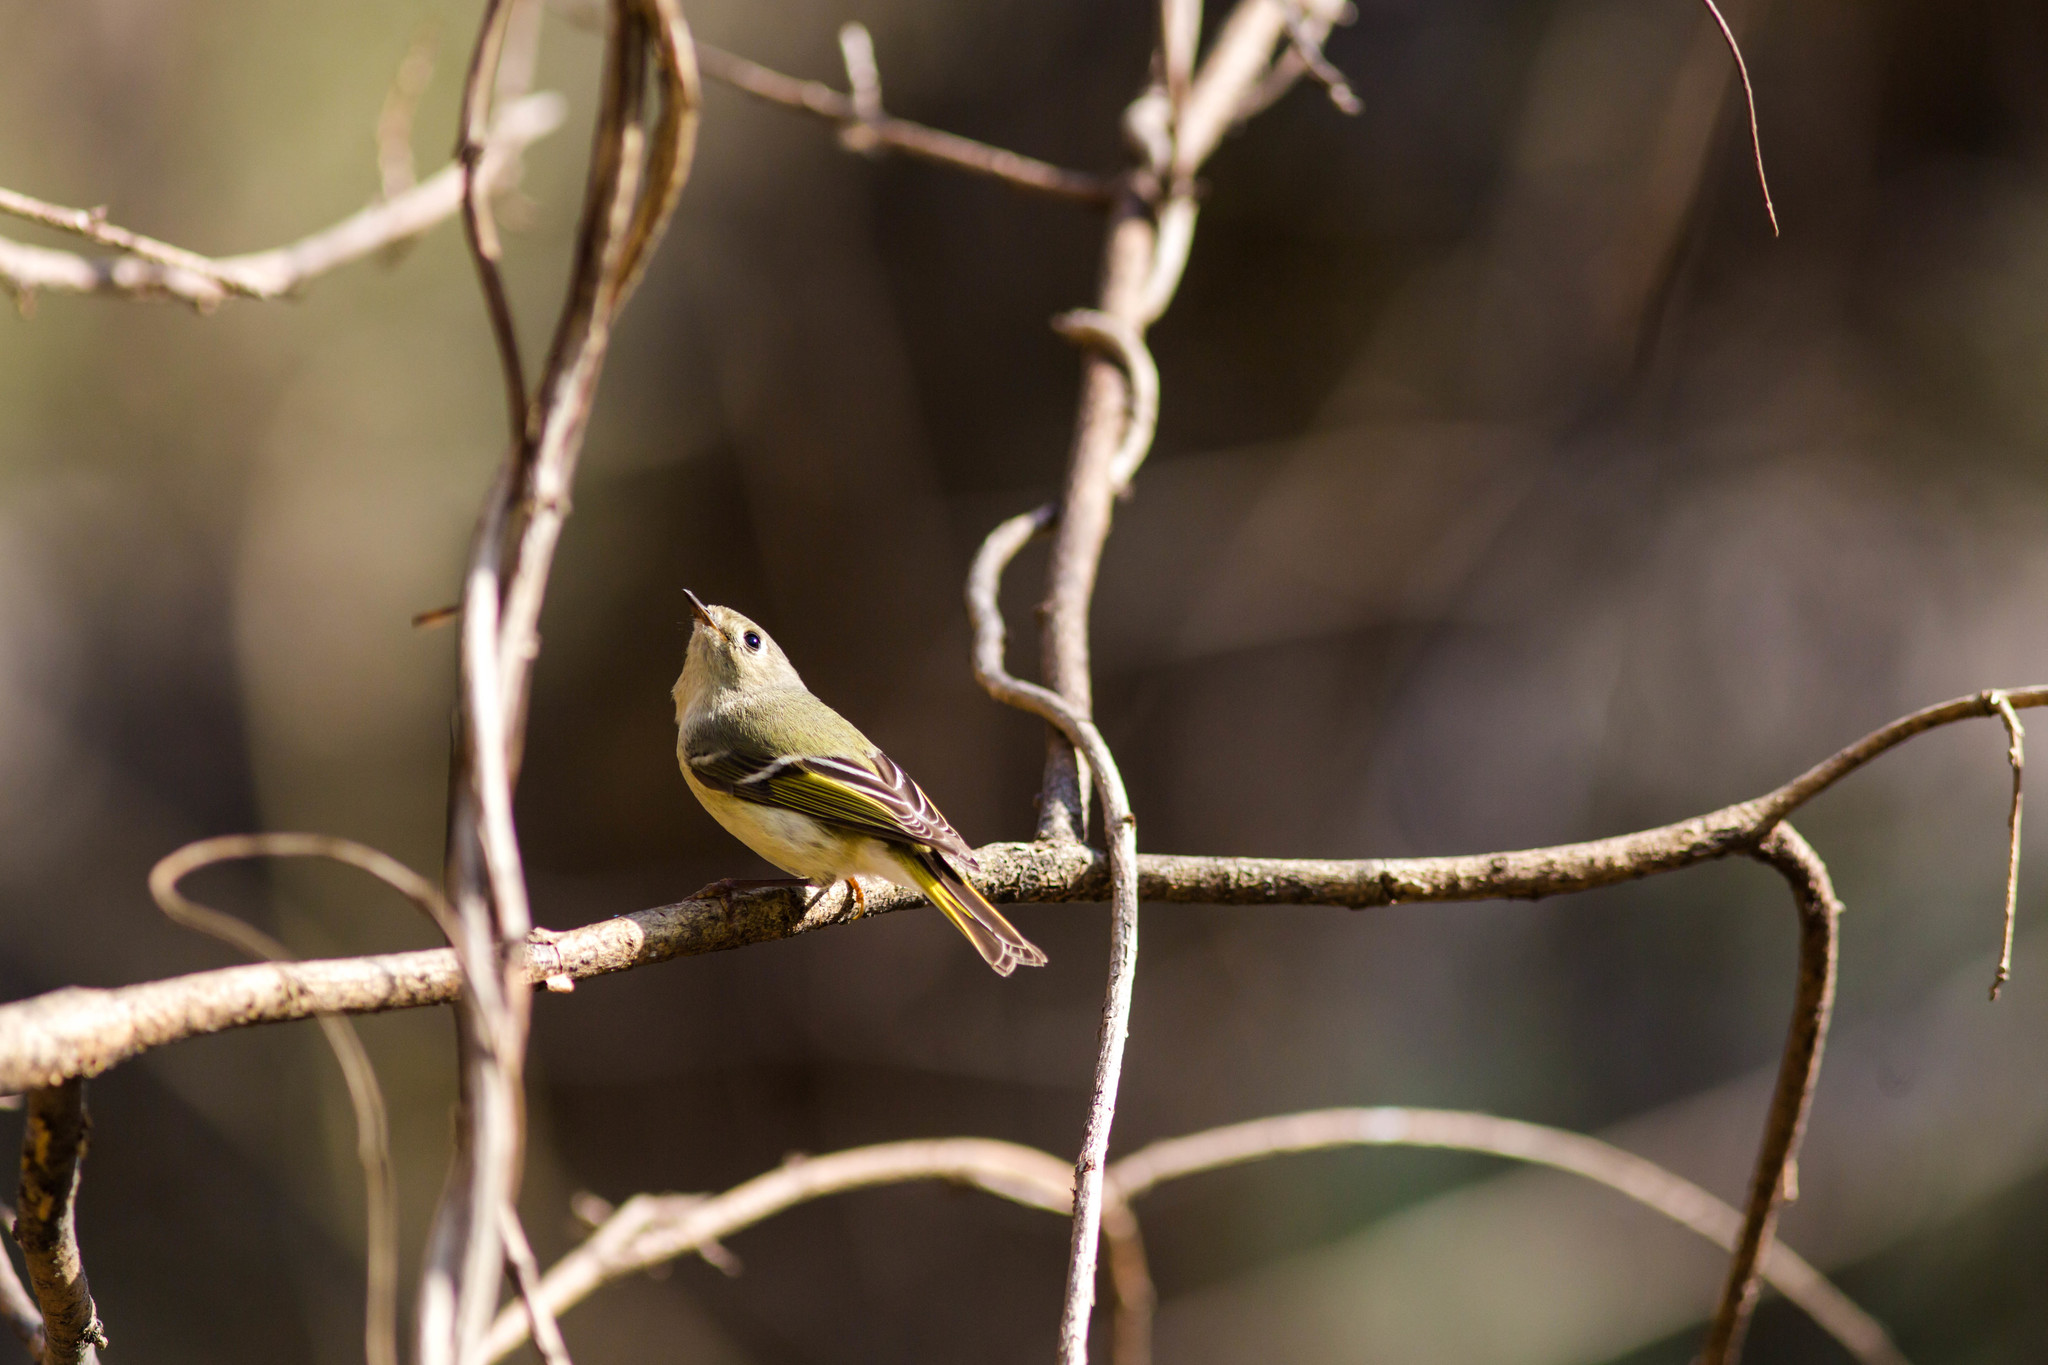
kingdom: Animalia
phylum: Chordata
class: Aves
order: Passeriformes
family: Regulidae
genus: Regulus
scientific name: Regulus calendula
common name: Ruby-crowned kinglet
